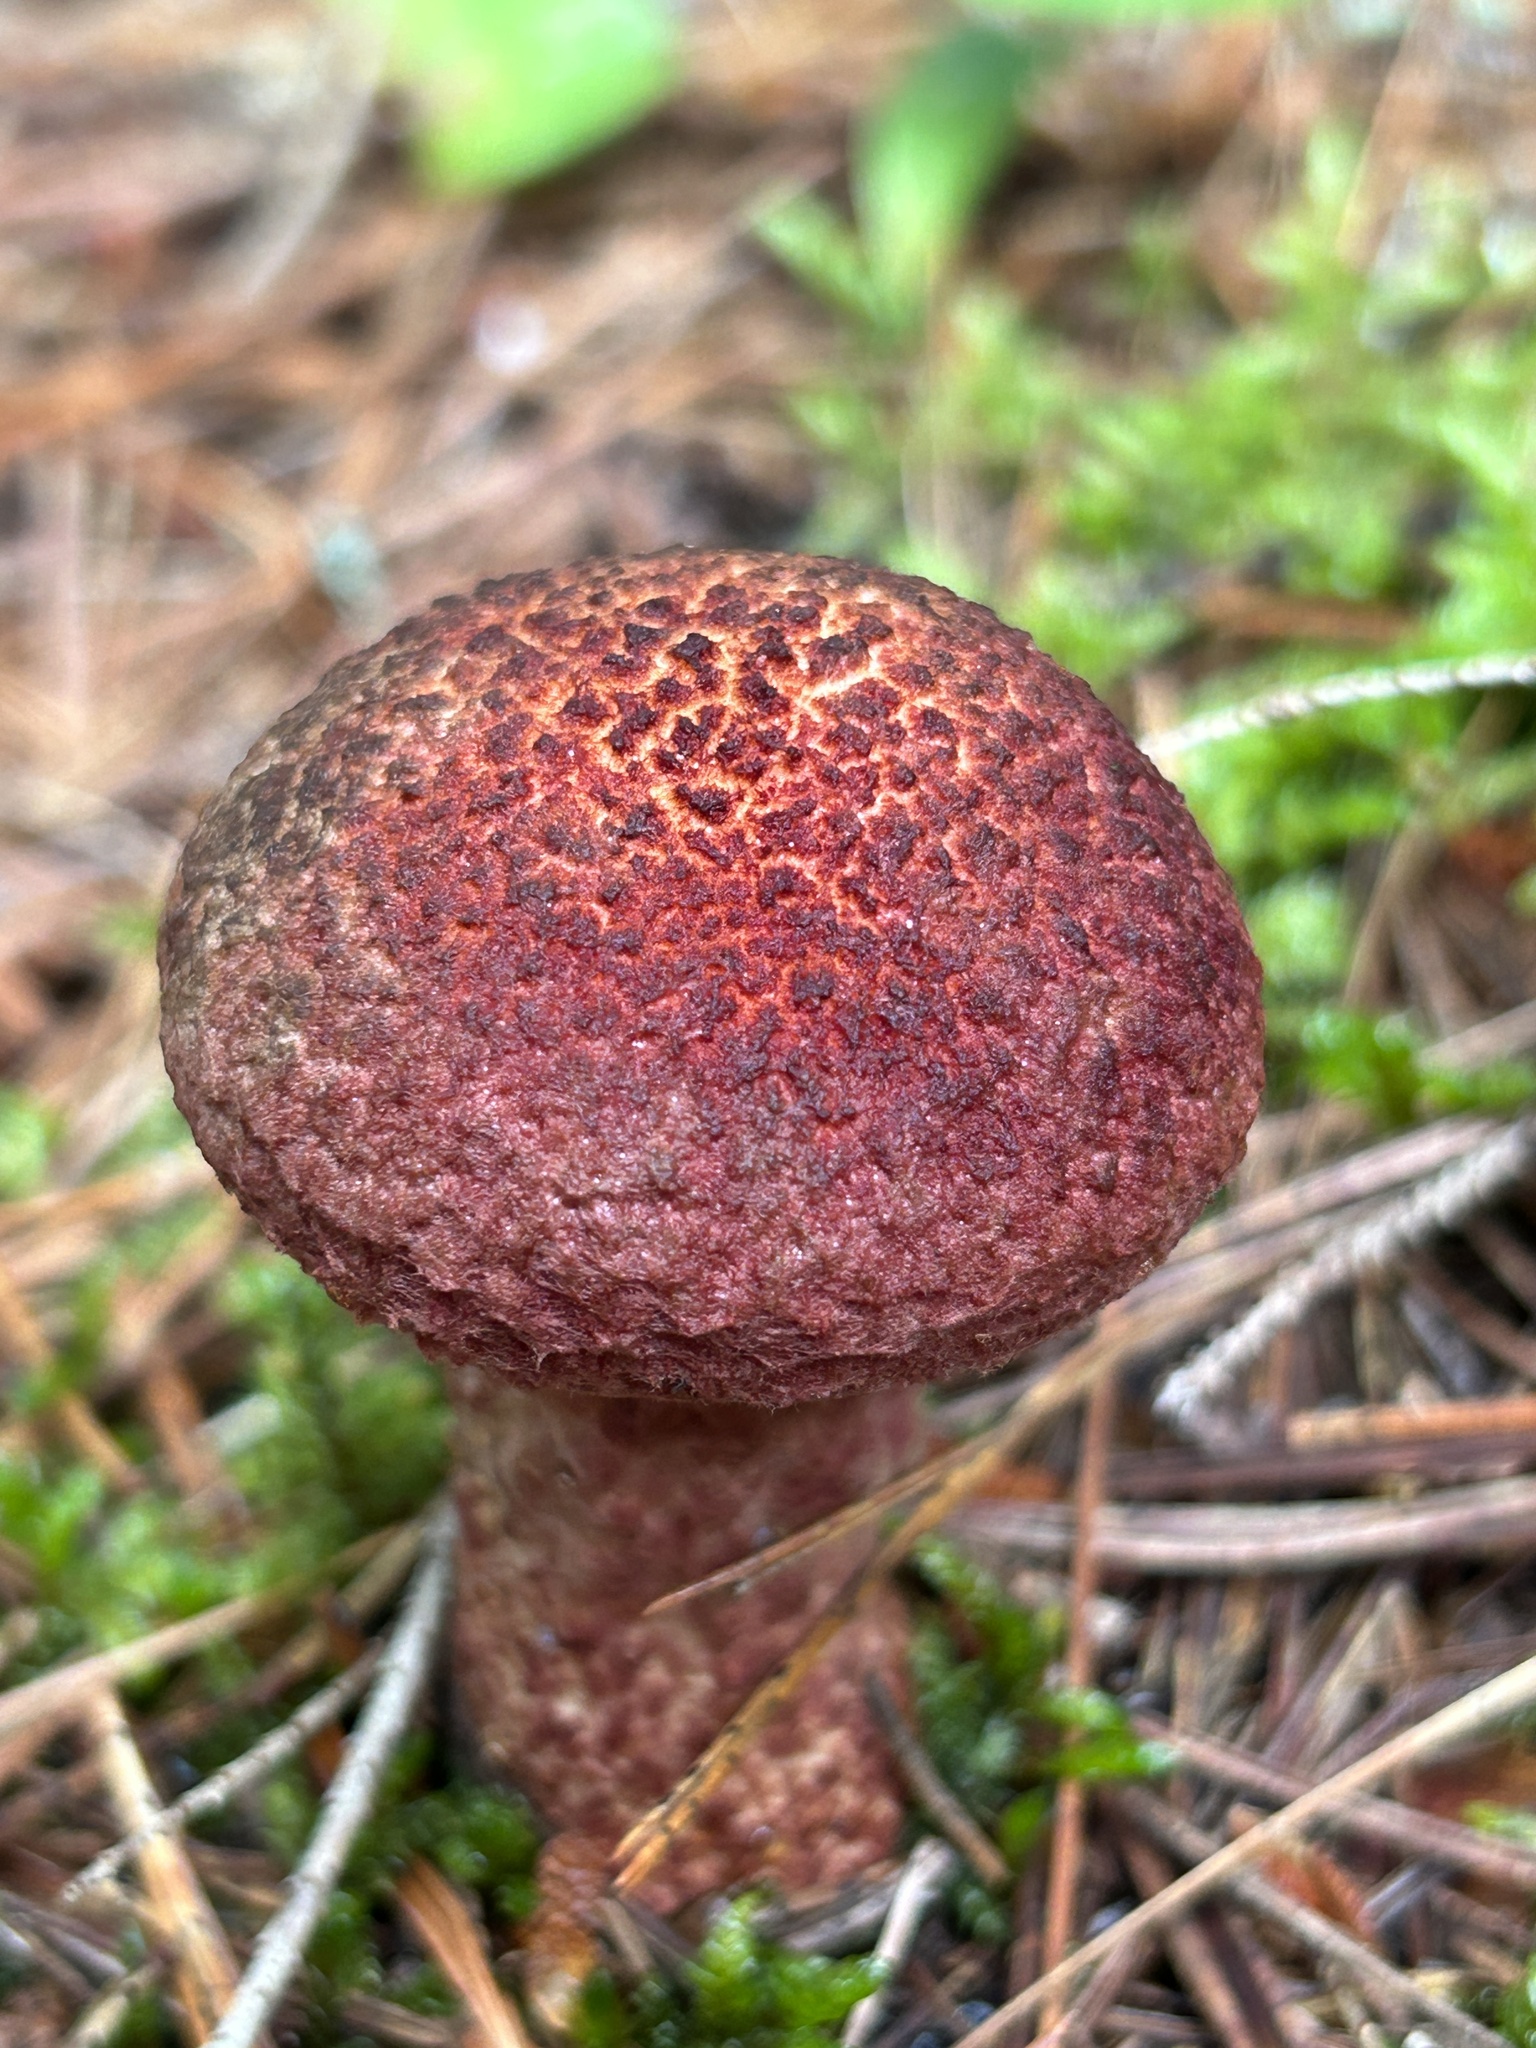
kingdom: Fungi
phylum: Basidiomycota
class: Agaricomycetes
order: Boletales
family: Suillaceae
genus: Suillus
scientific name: Suillus spraguei
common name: Painted suillus
